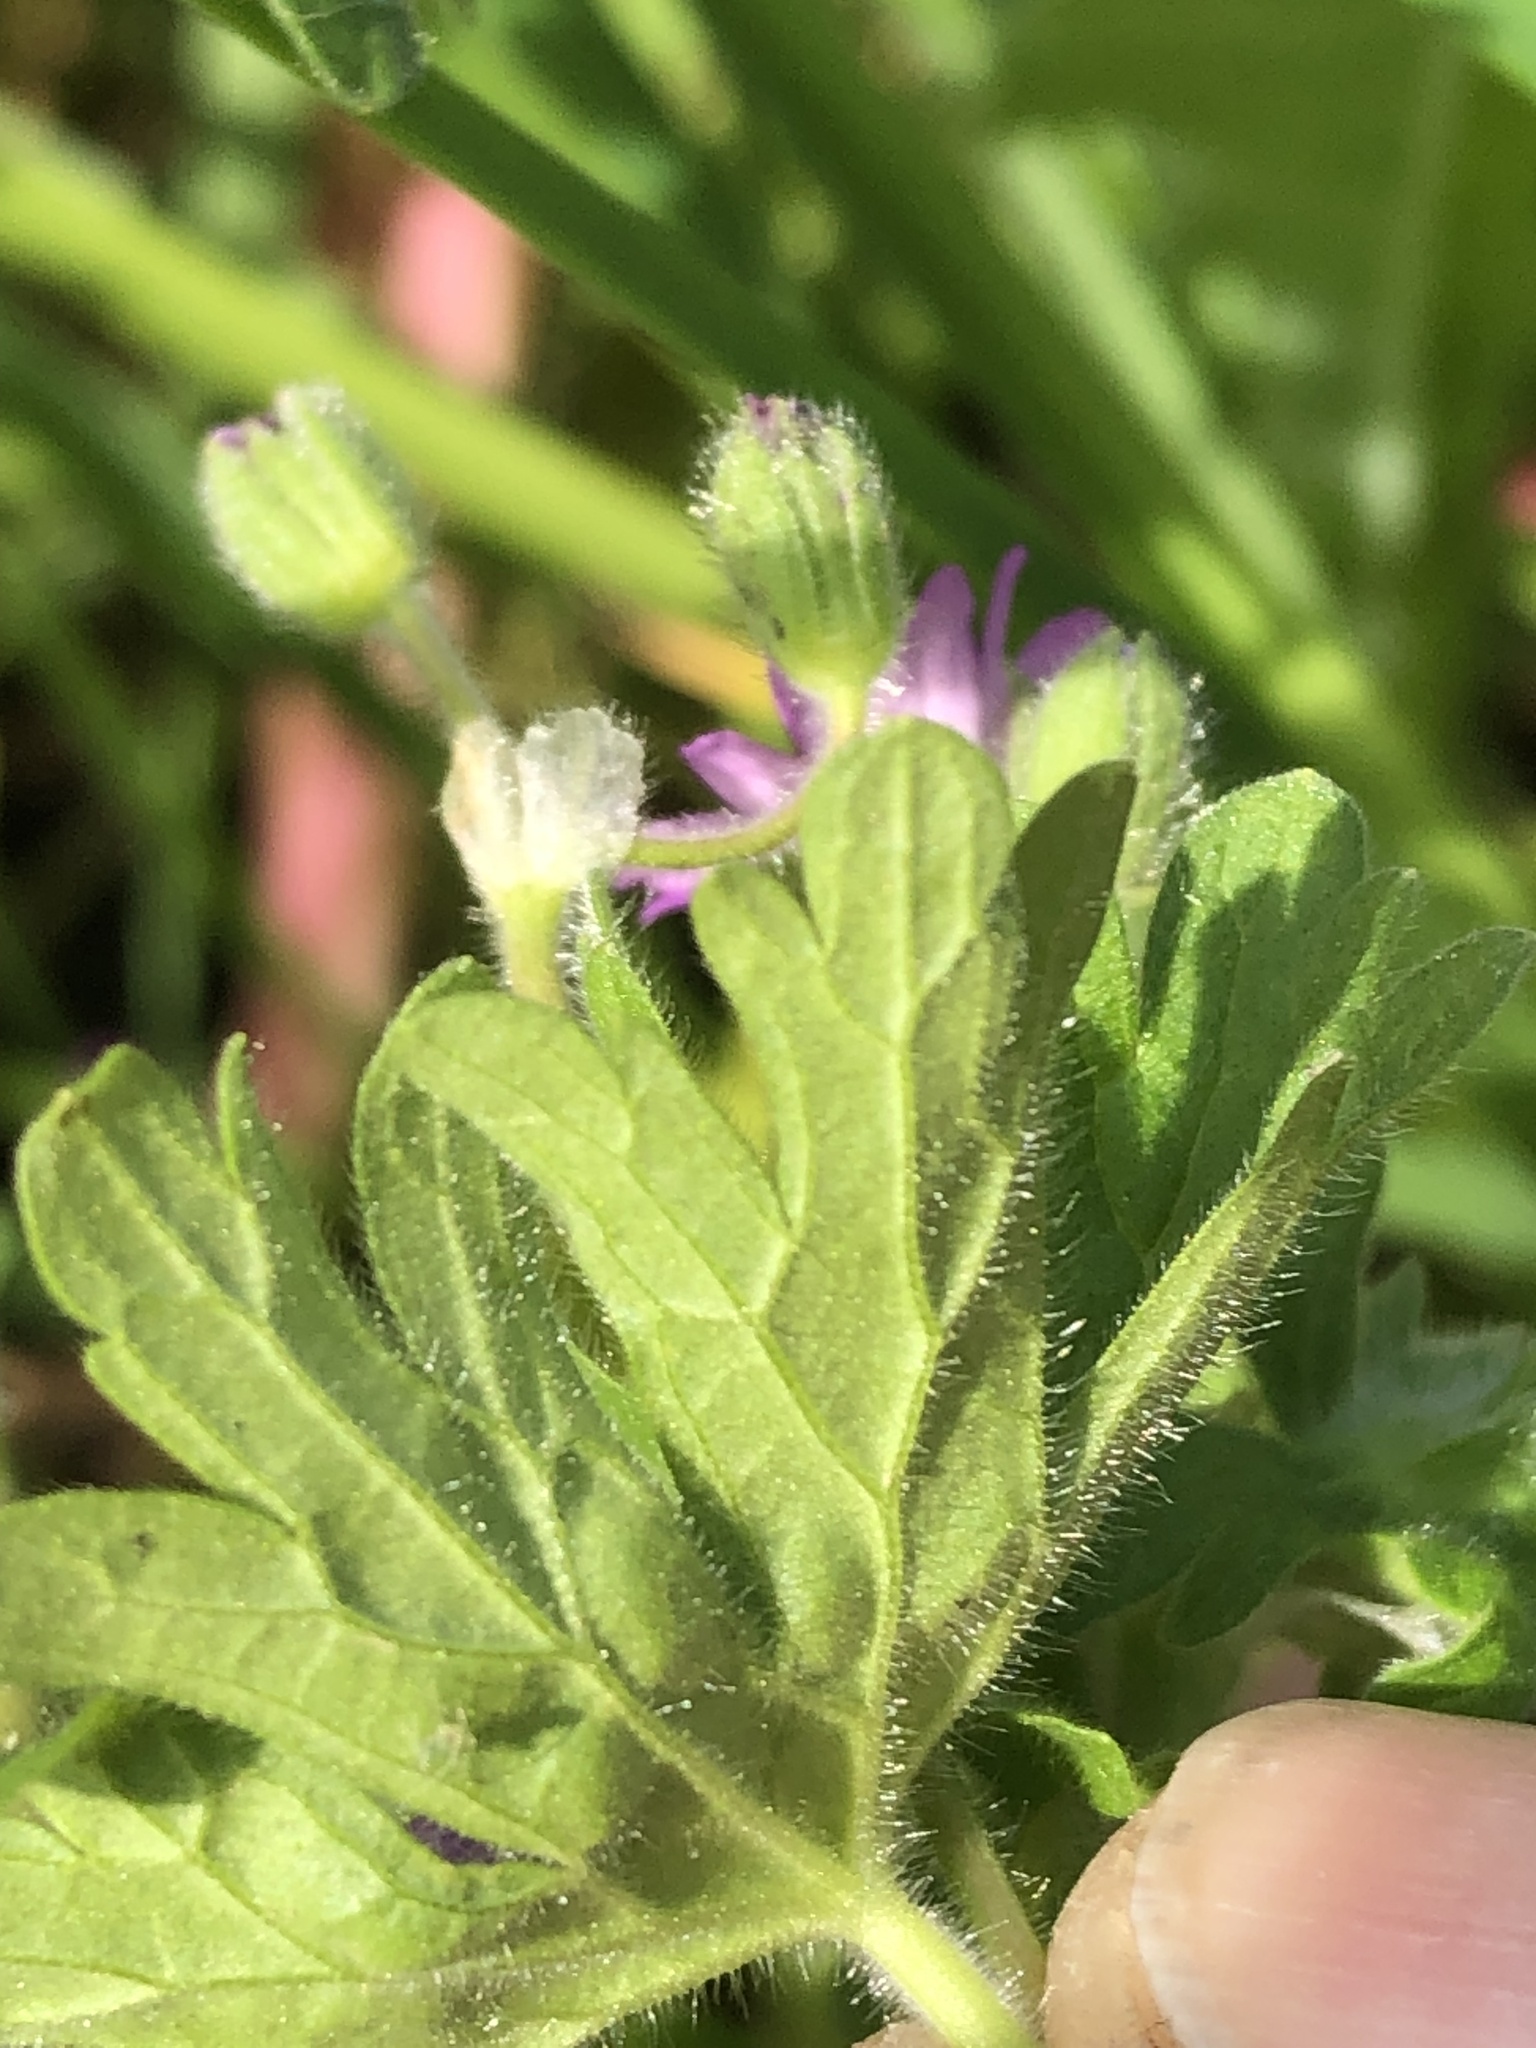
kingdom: Plantae
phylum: Tracheophyta
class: Magnoliopsida
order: Geraniales
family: Geraniaceae
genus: Geranium
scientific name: Geranium molle
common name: Dove's-foot crane's-bill
